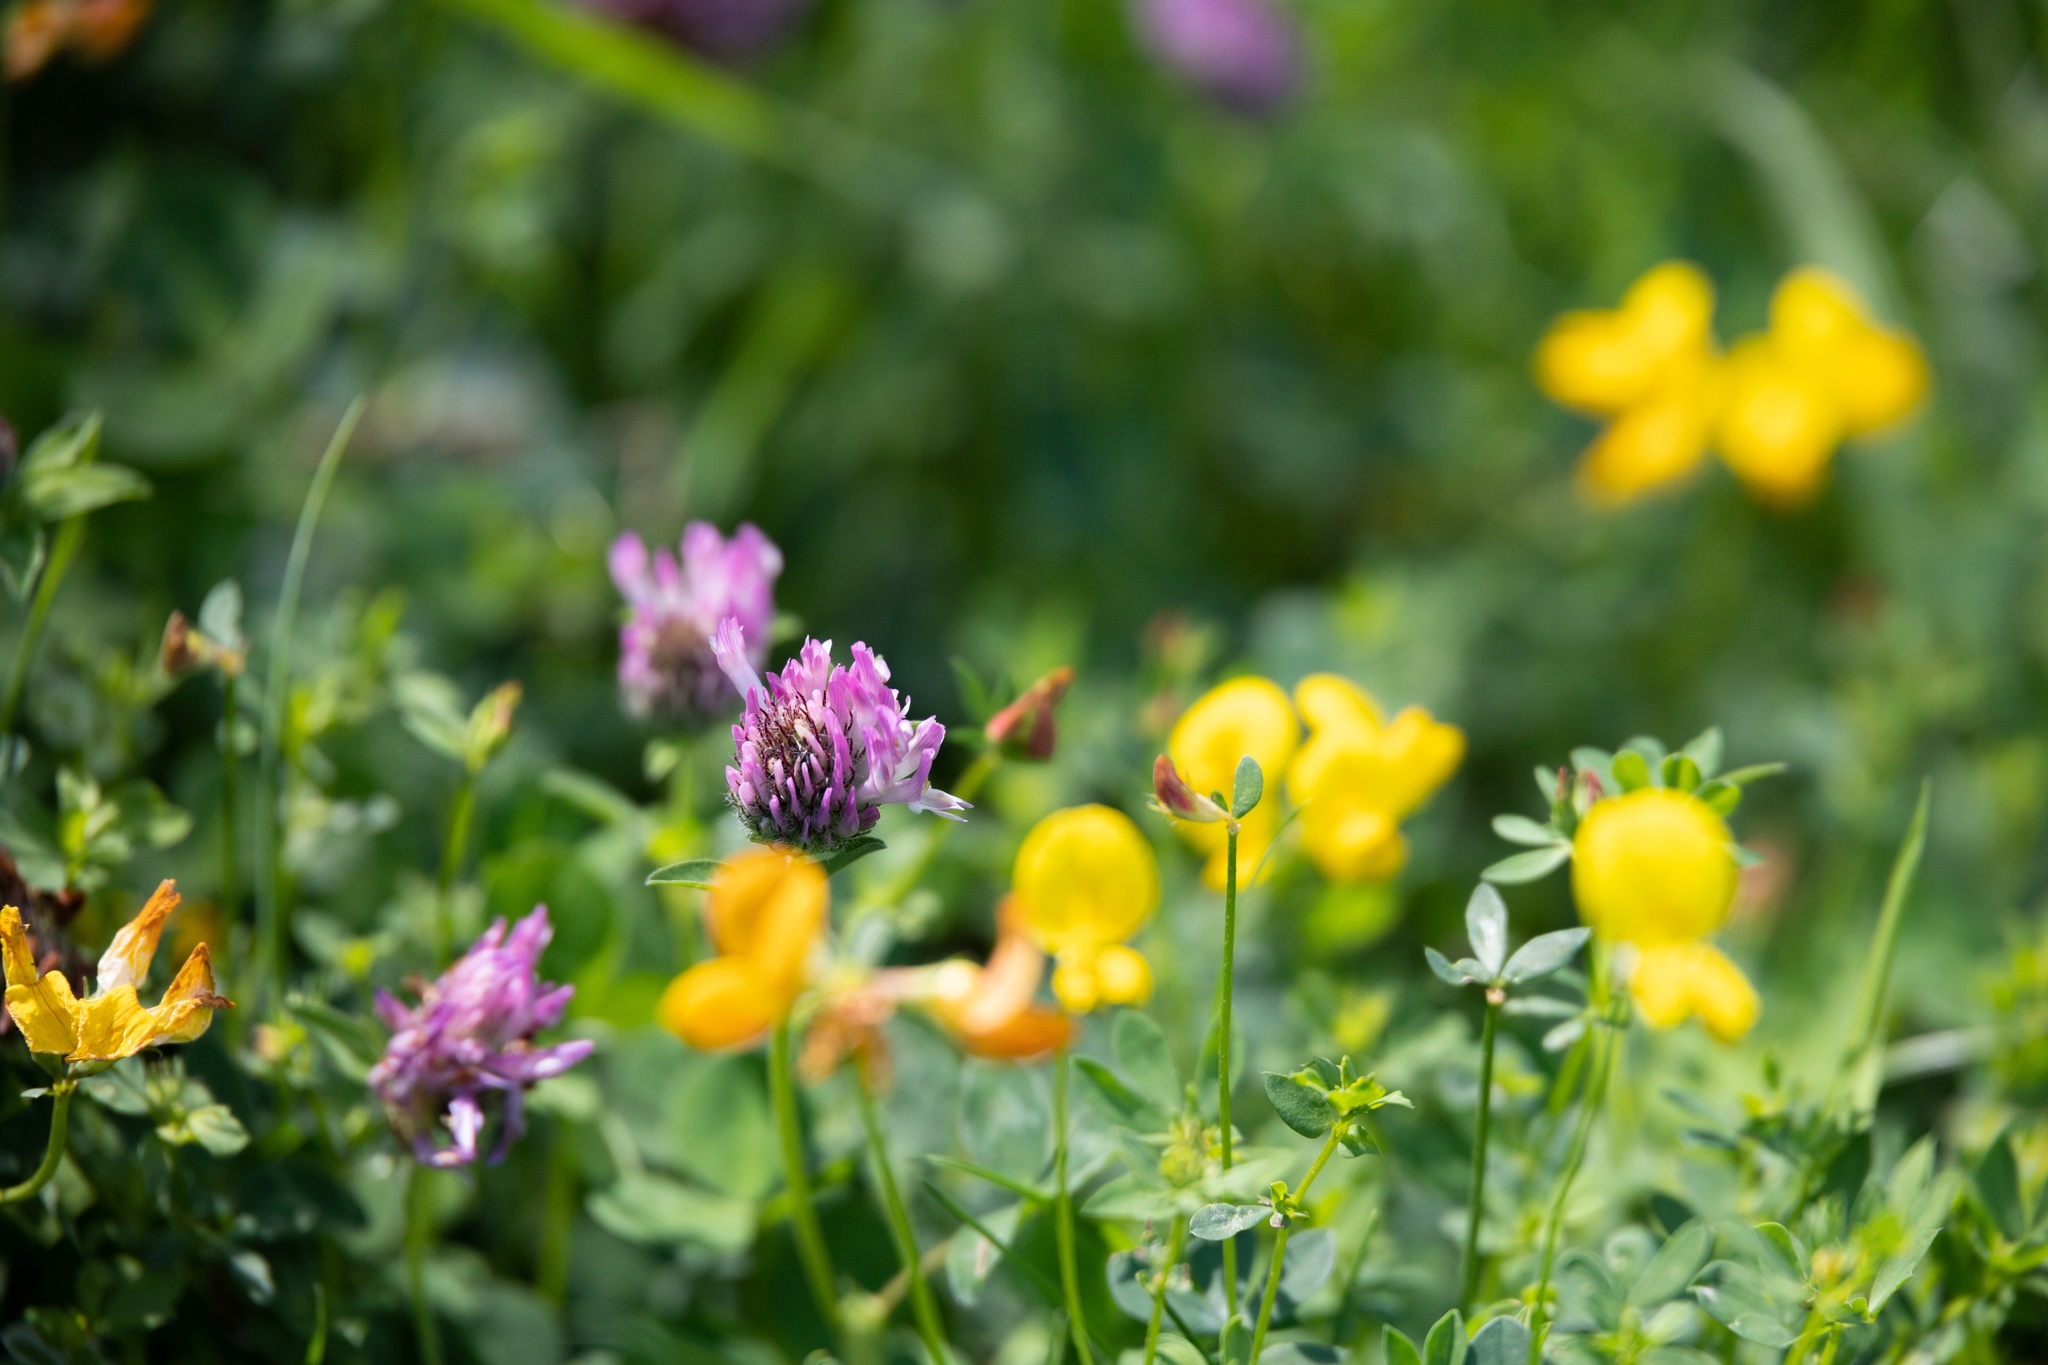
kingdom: Plantae
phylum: Tracheophyta
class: Magnoliopsida
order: Fabales
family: Fabaceae
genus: Trifolium
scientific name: Trifolium pratense
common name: Red clover
